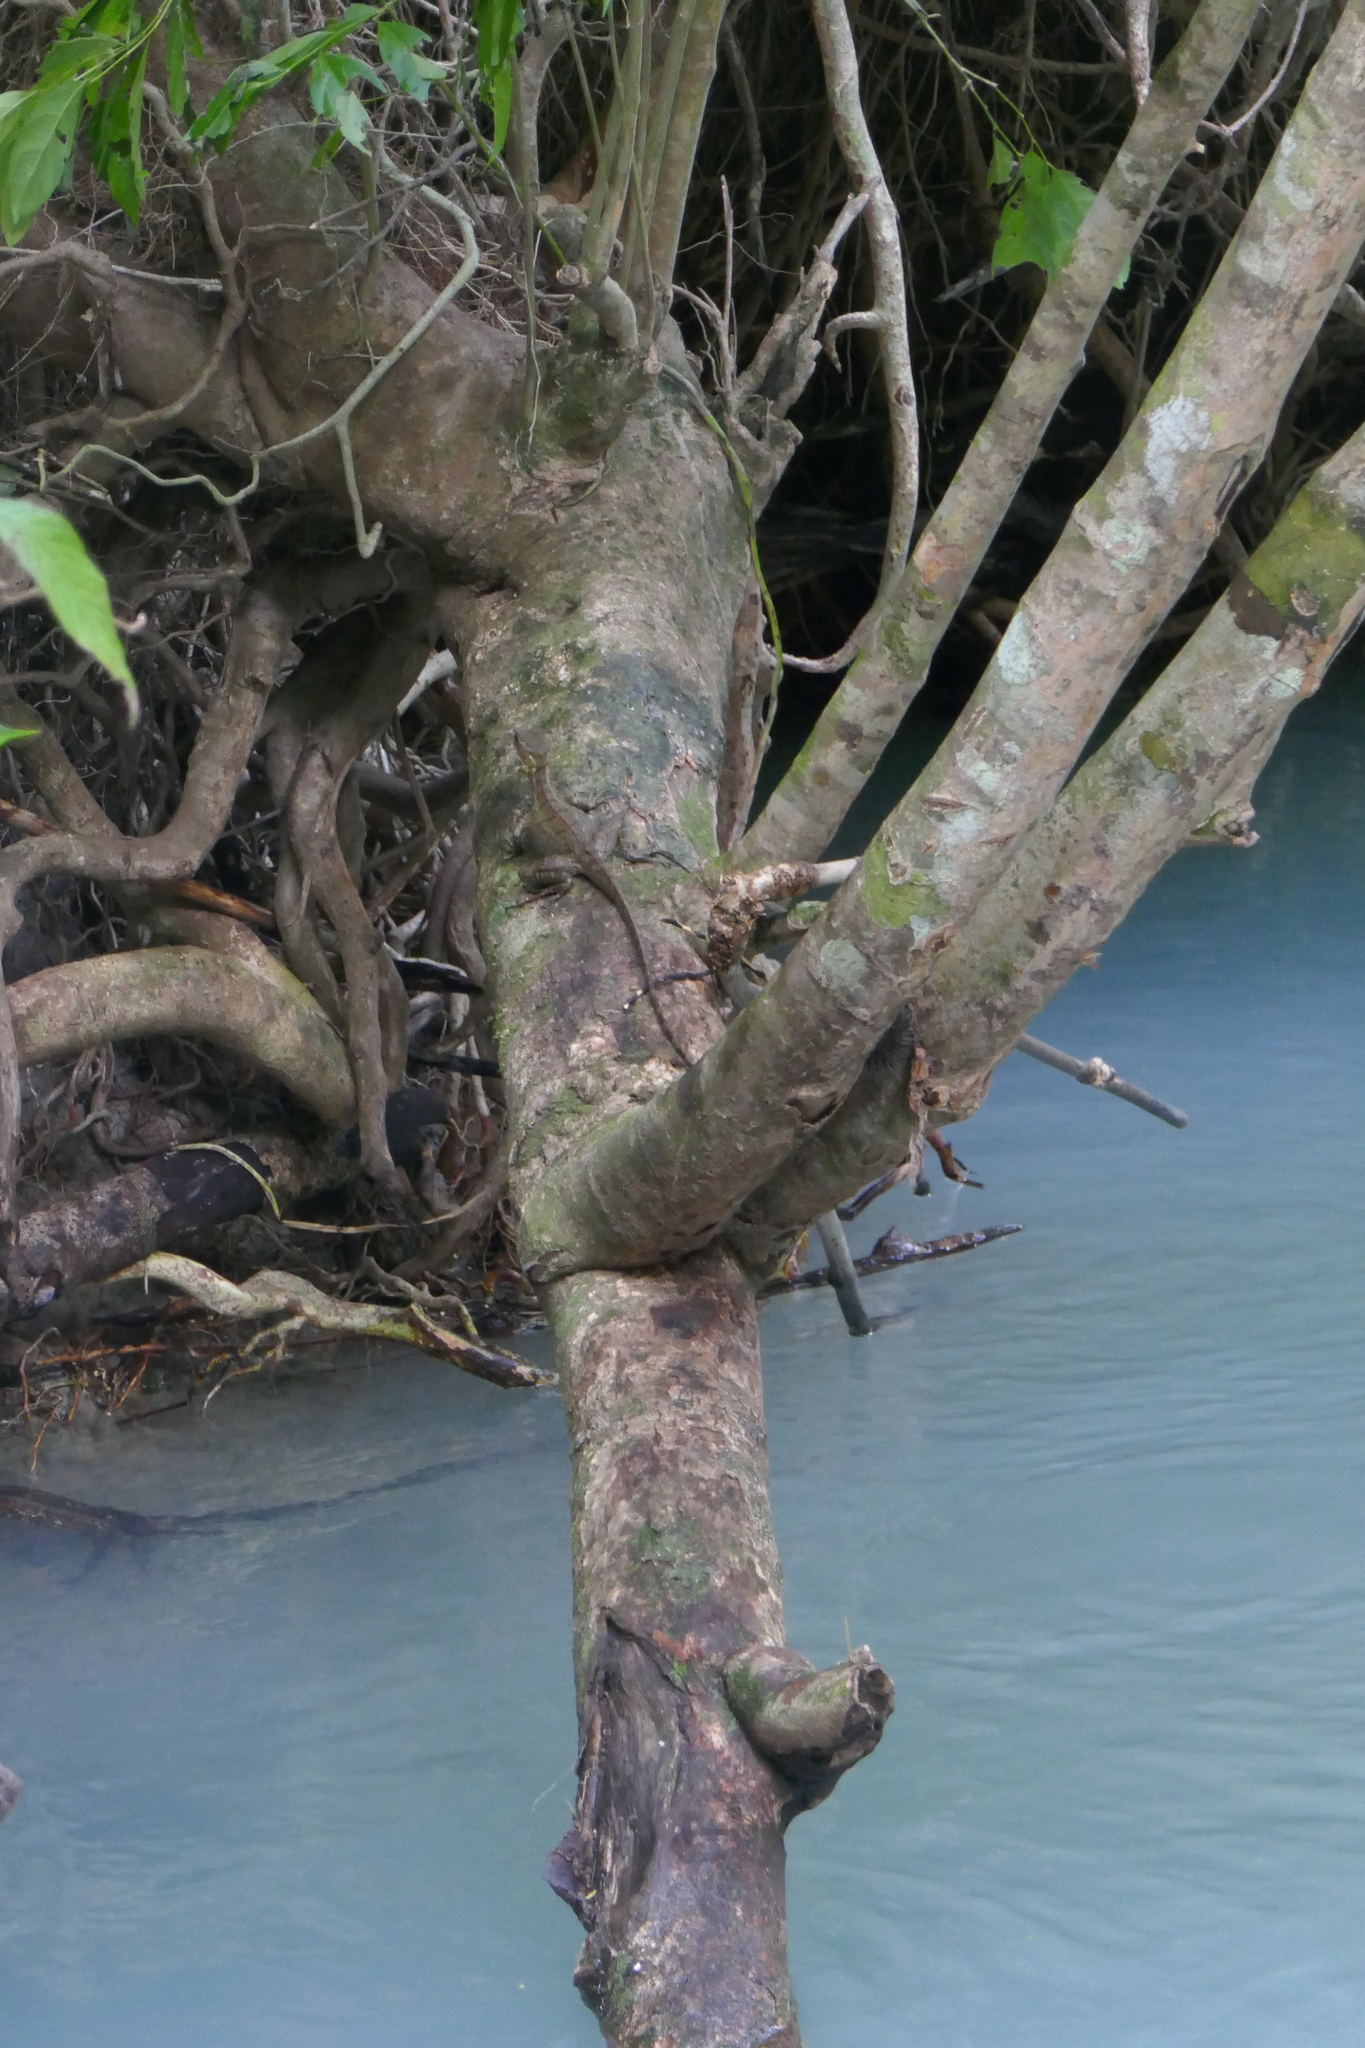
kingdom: Animalia
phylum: Chordata
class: Squamata
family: Corytophanidae
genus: Basiliscus
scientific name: Basiliscus basiliscus
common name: Common basilisk
